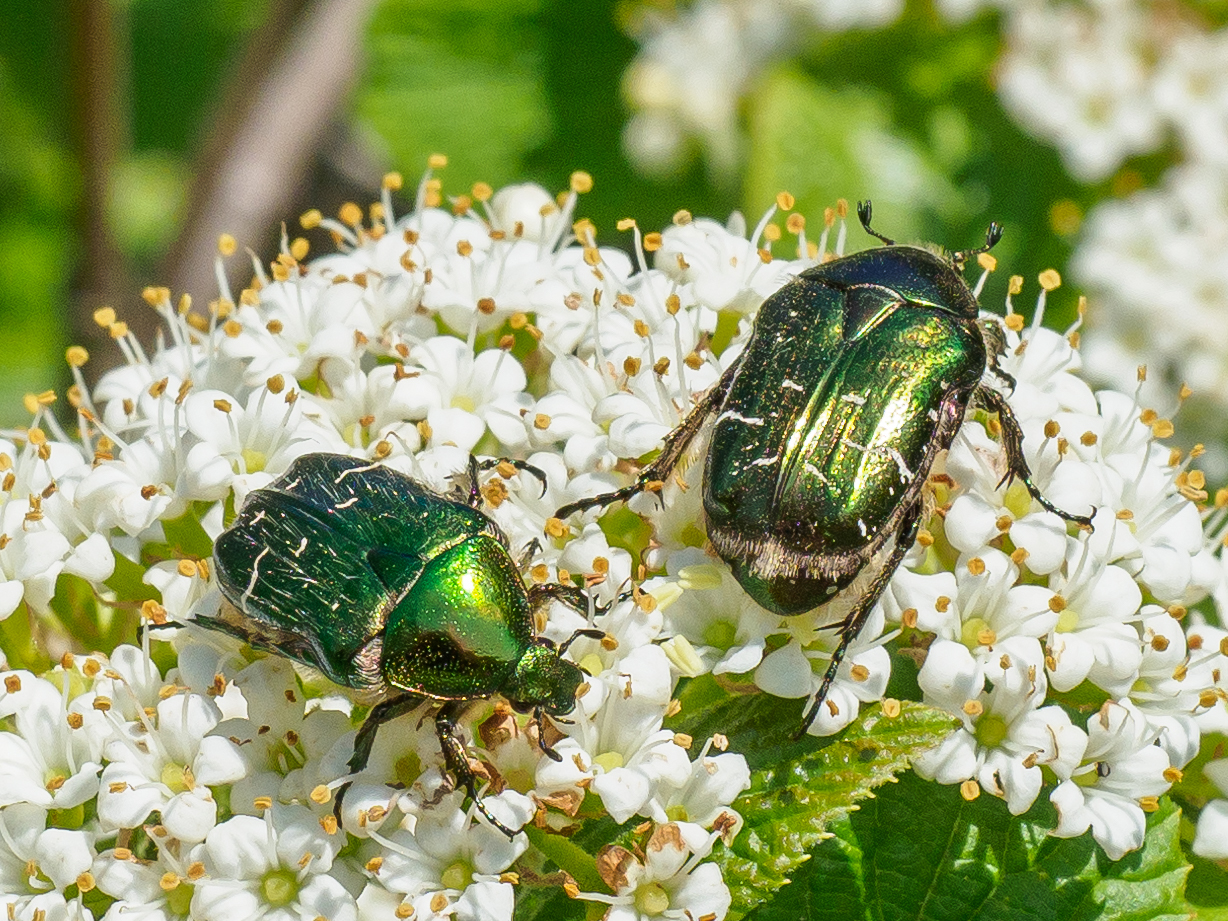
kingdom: Animalia
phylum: Arthropoda
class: Insecta
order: Coleoptera
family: Scarabaeidae
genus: Cetonia
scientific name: Cetonia aurata
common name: Rose chafer
